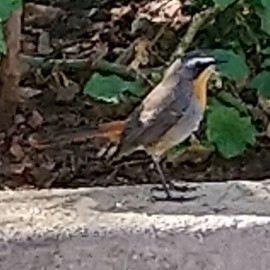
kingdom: Animalia
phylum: Chordata
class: Aves
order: Passeriformes
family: Muscicapidae
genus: Cossypha
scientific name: Cossypha caffra
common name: Cape robin-chat
